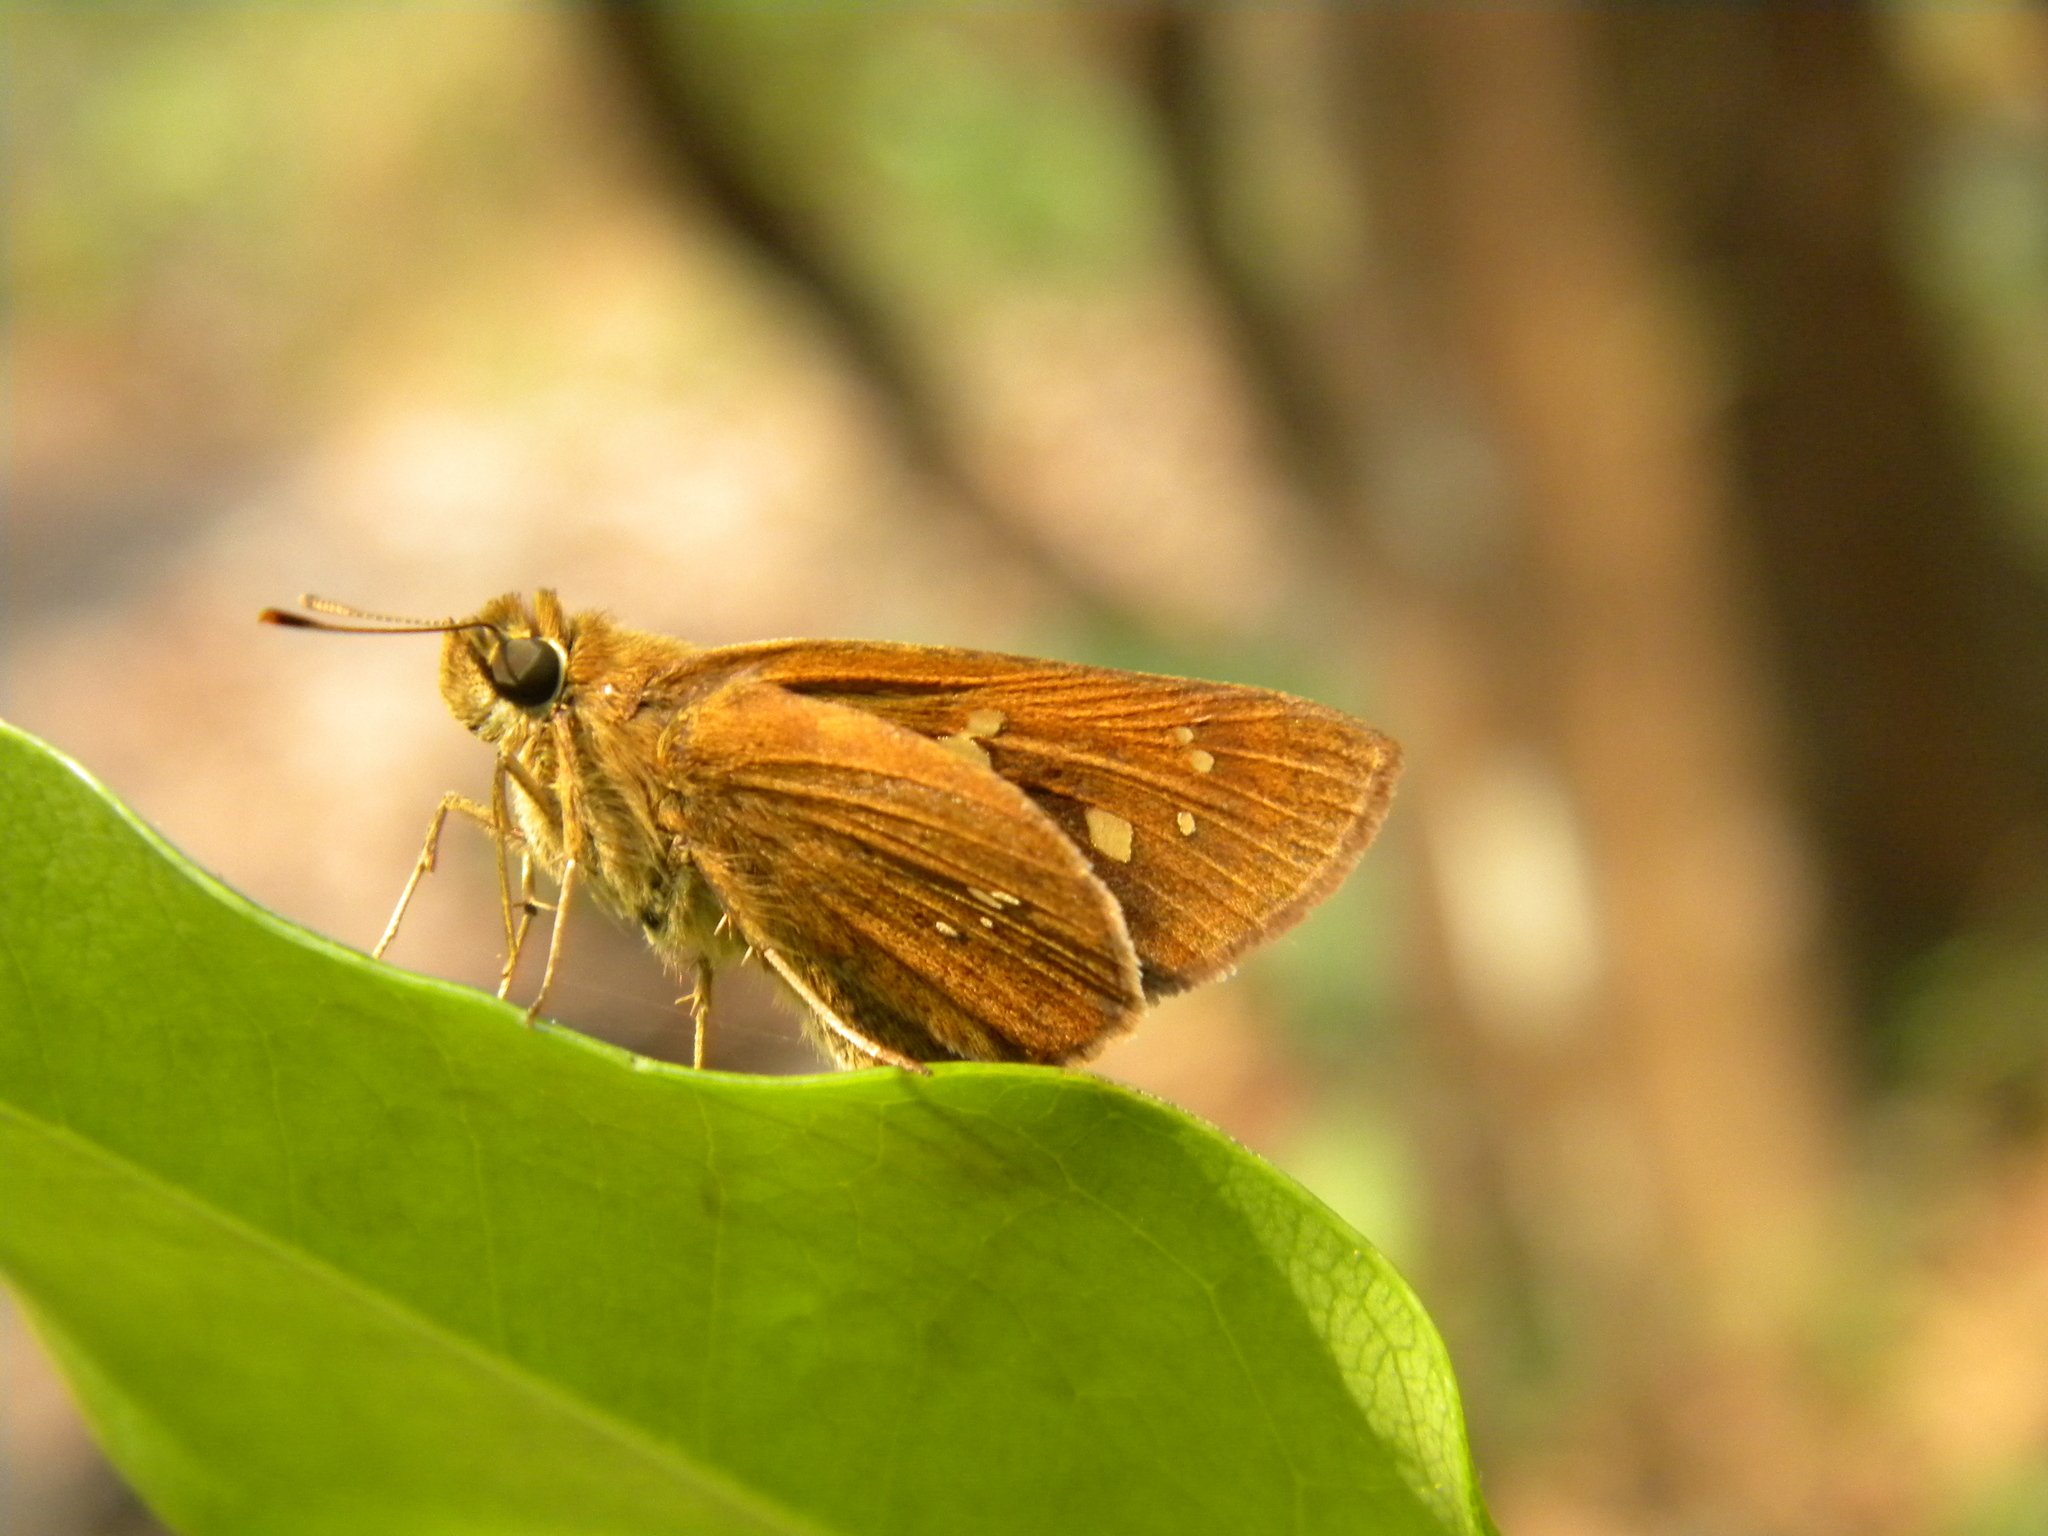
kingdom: Animalia
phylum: Arthropoda
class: Insecta
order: Lepidoptera
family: Hesperiidae
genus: Polytremis
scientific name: Polytremis lubricans
